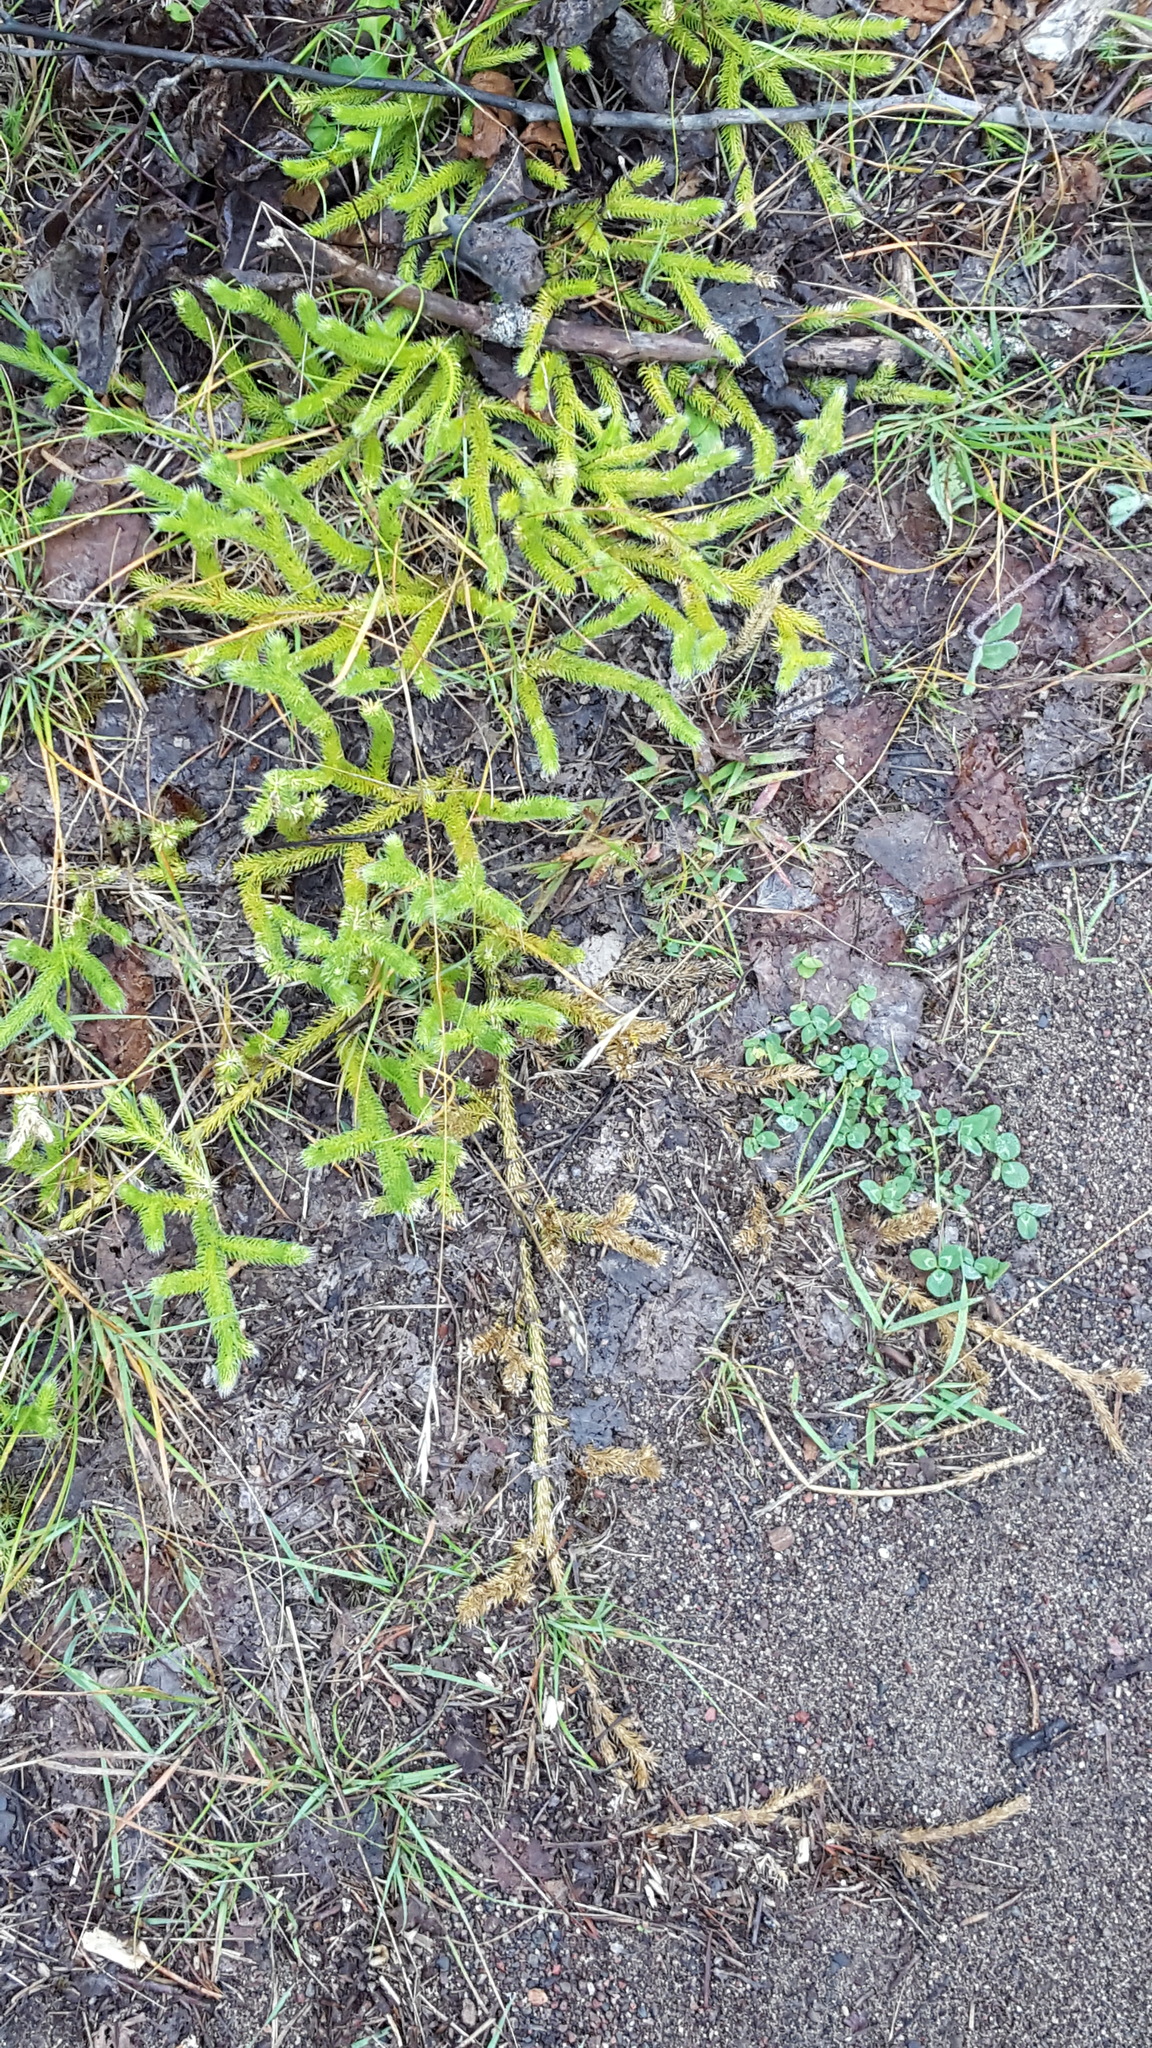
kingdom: Plantae
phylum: Tracheophyta
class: Lycopodiopsida
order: Lycopodiales
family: Lycopodiaceae
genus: Lycopodium
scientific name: Lycopodium clavatum
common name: Stag's-horn clubmoss
